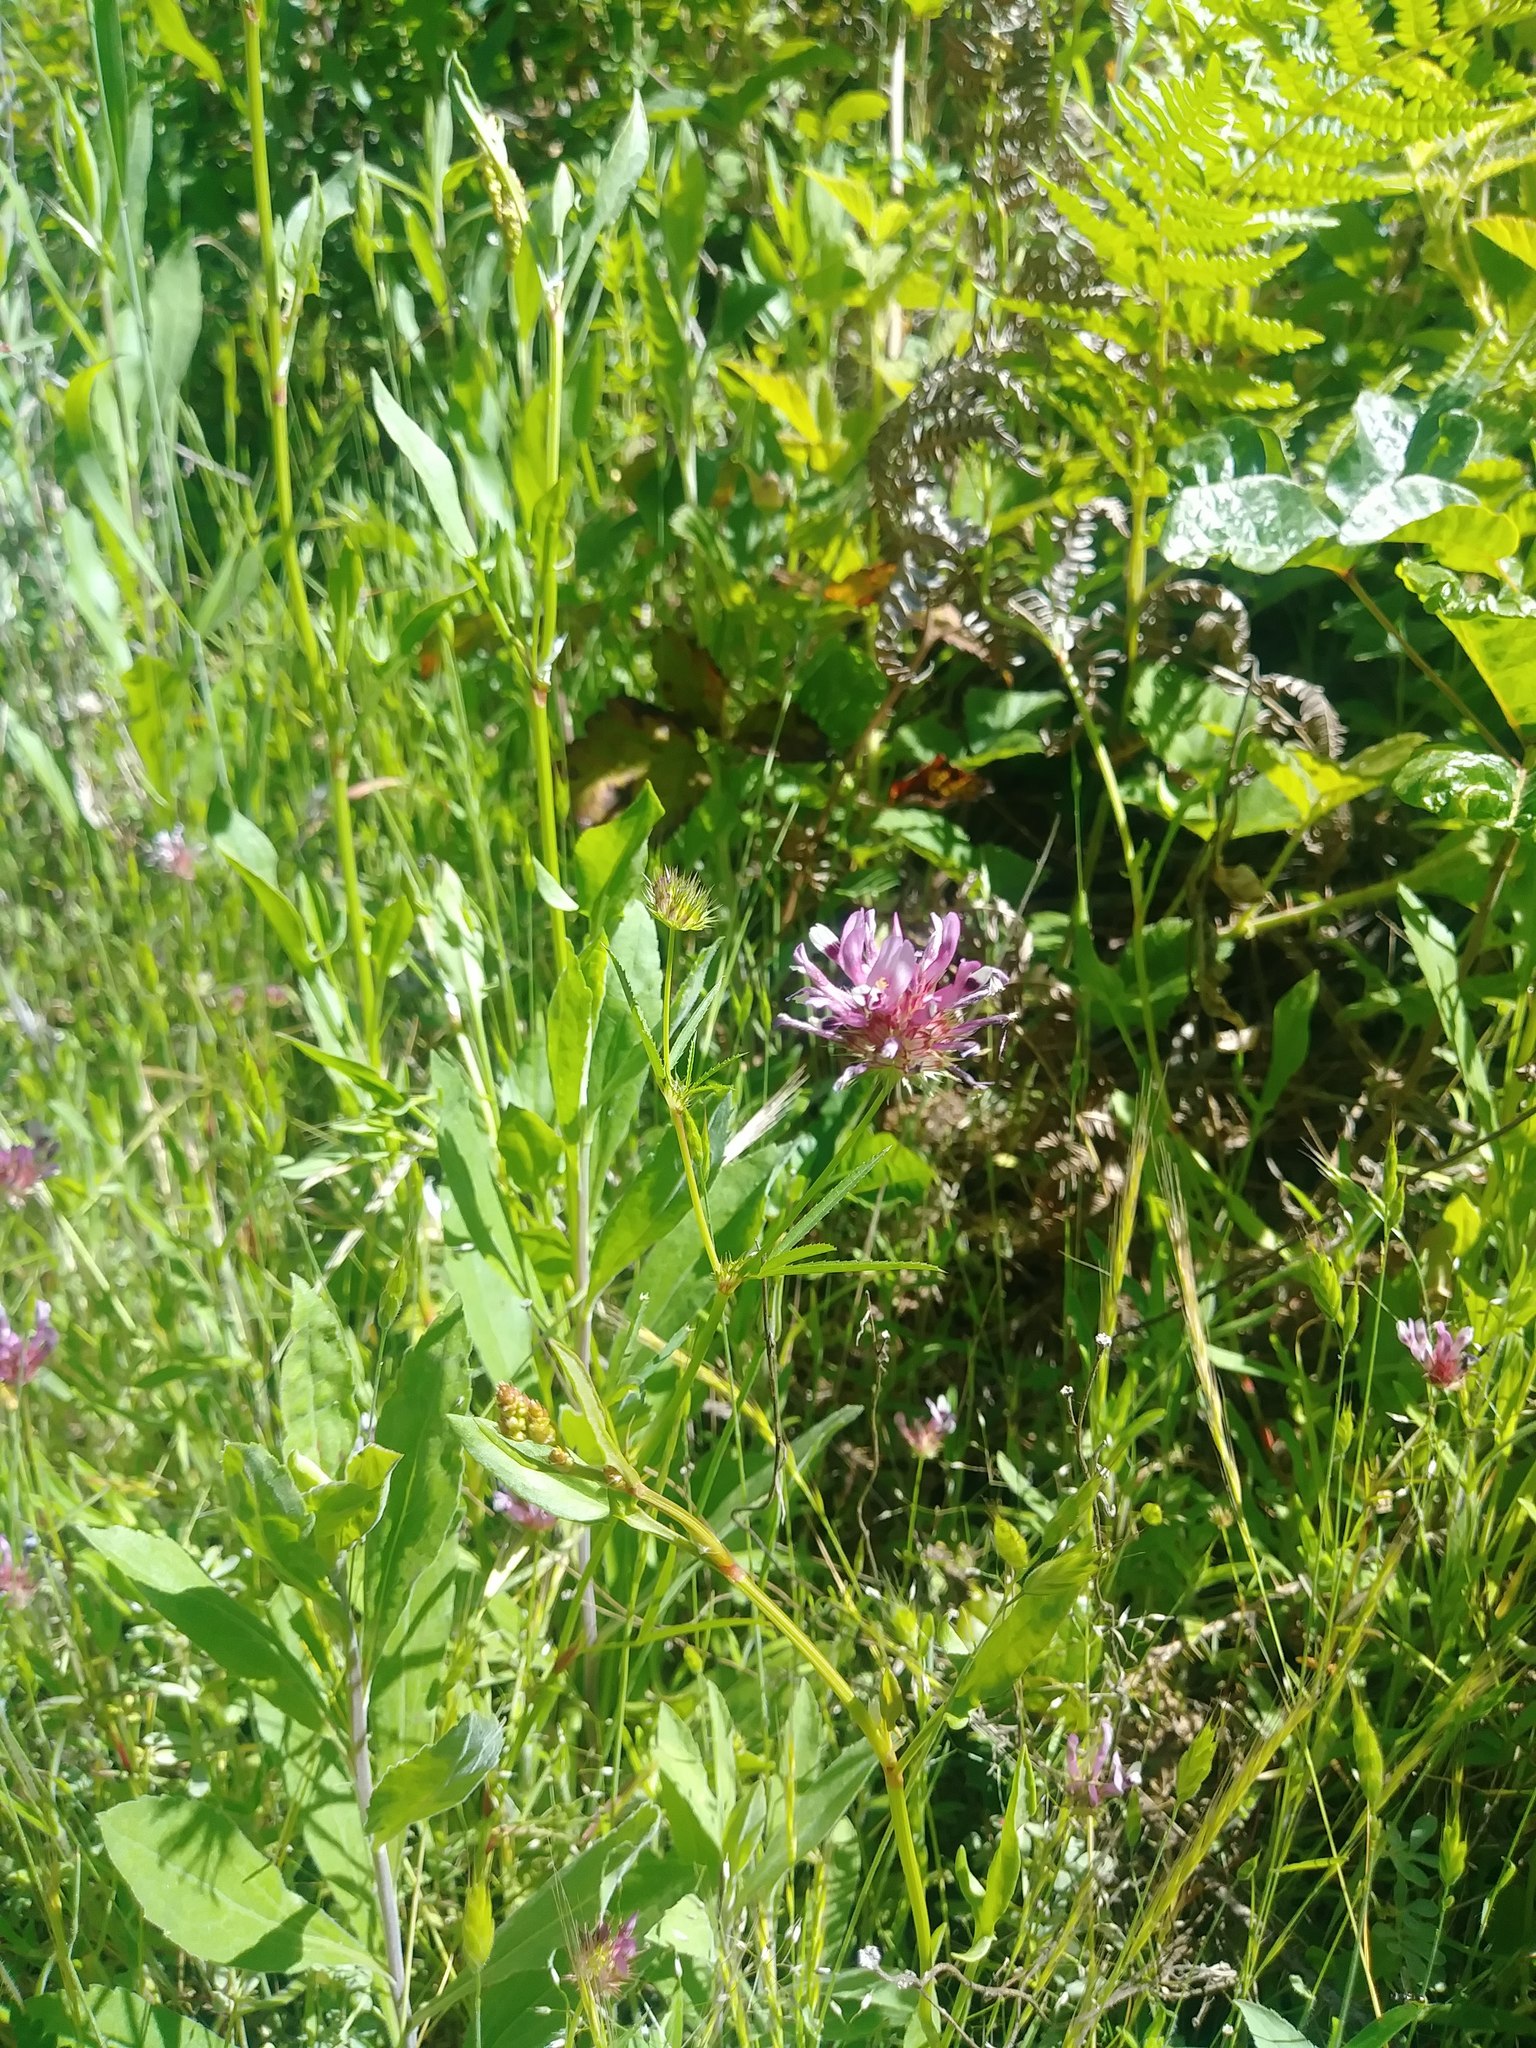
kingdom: Plantae
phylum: Tracheophyta
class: Magnoliopsida
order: Fabales
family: Fabaceae
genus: Trifolium
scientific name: Trifolium willdenovii
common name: Tomcat clover
